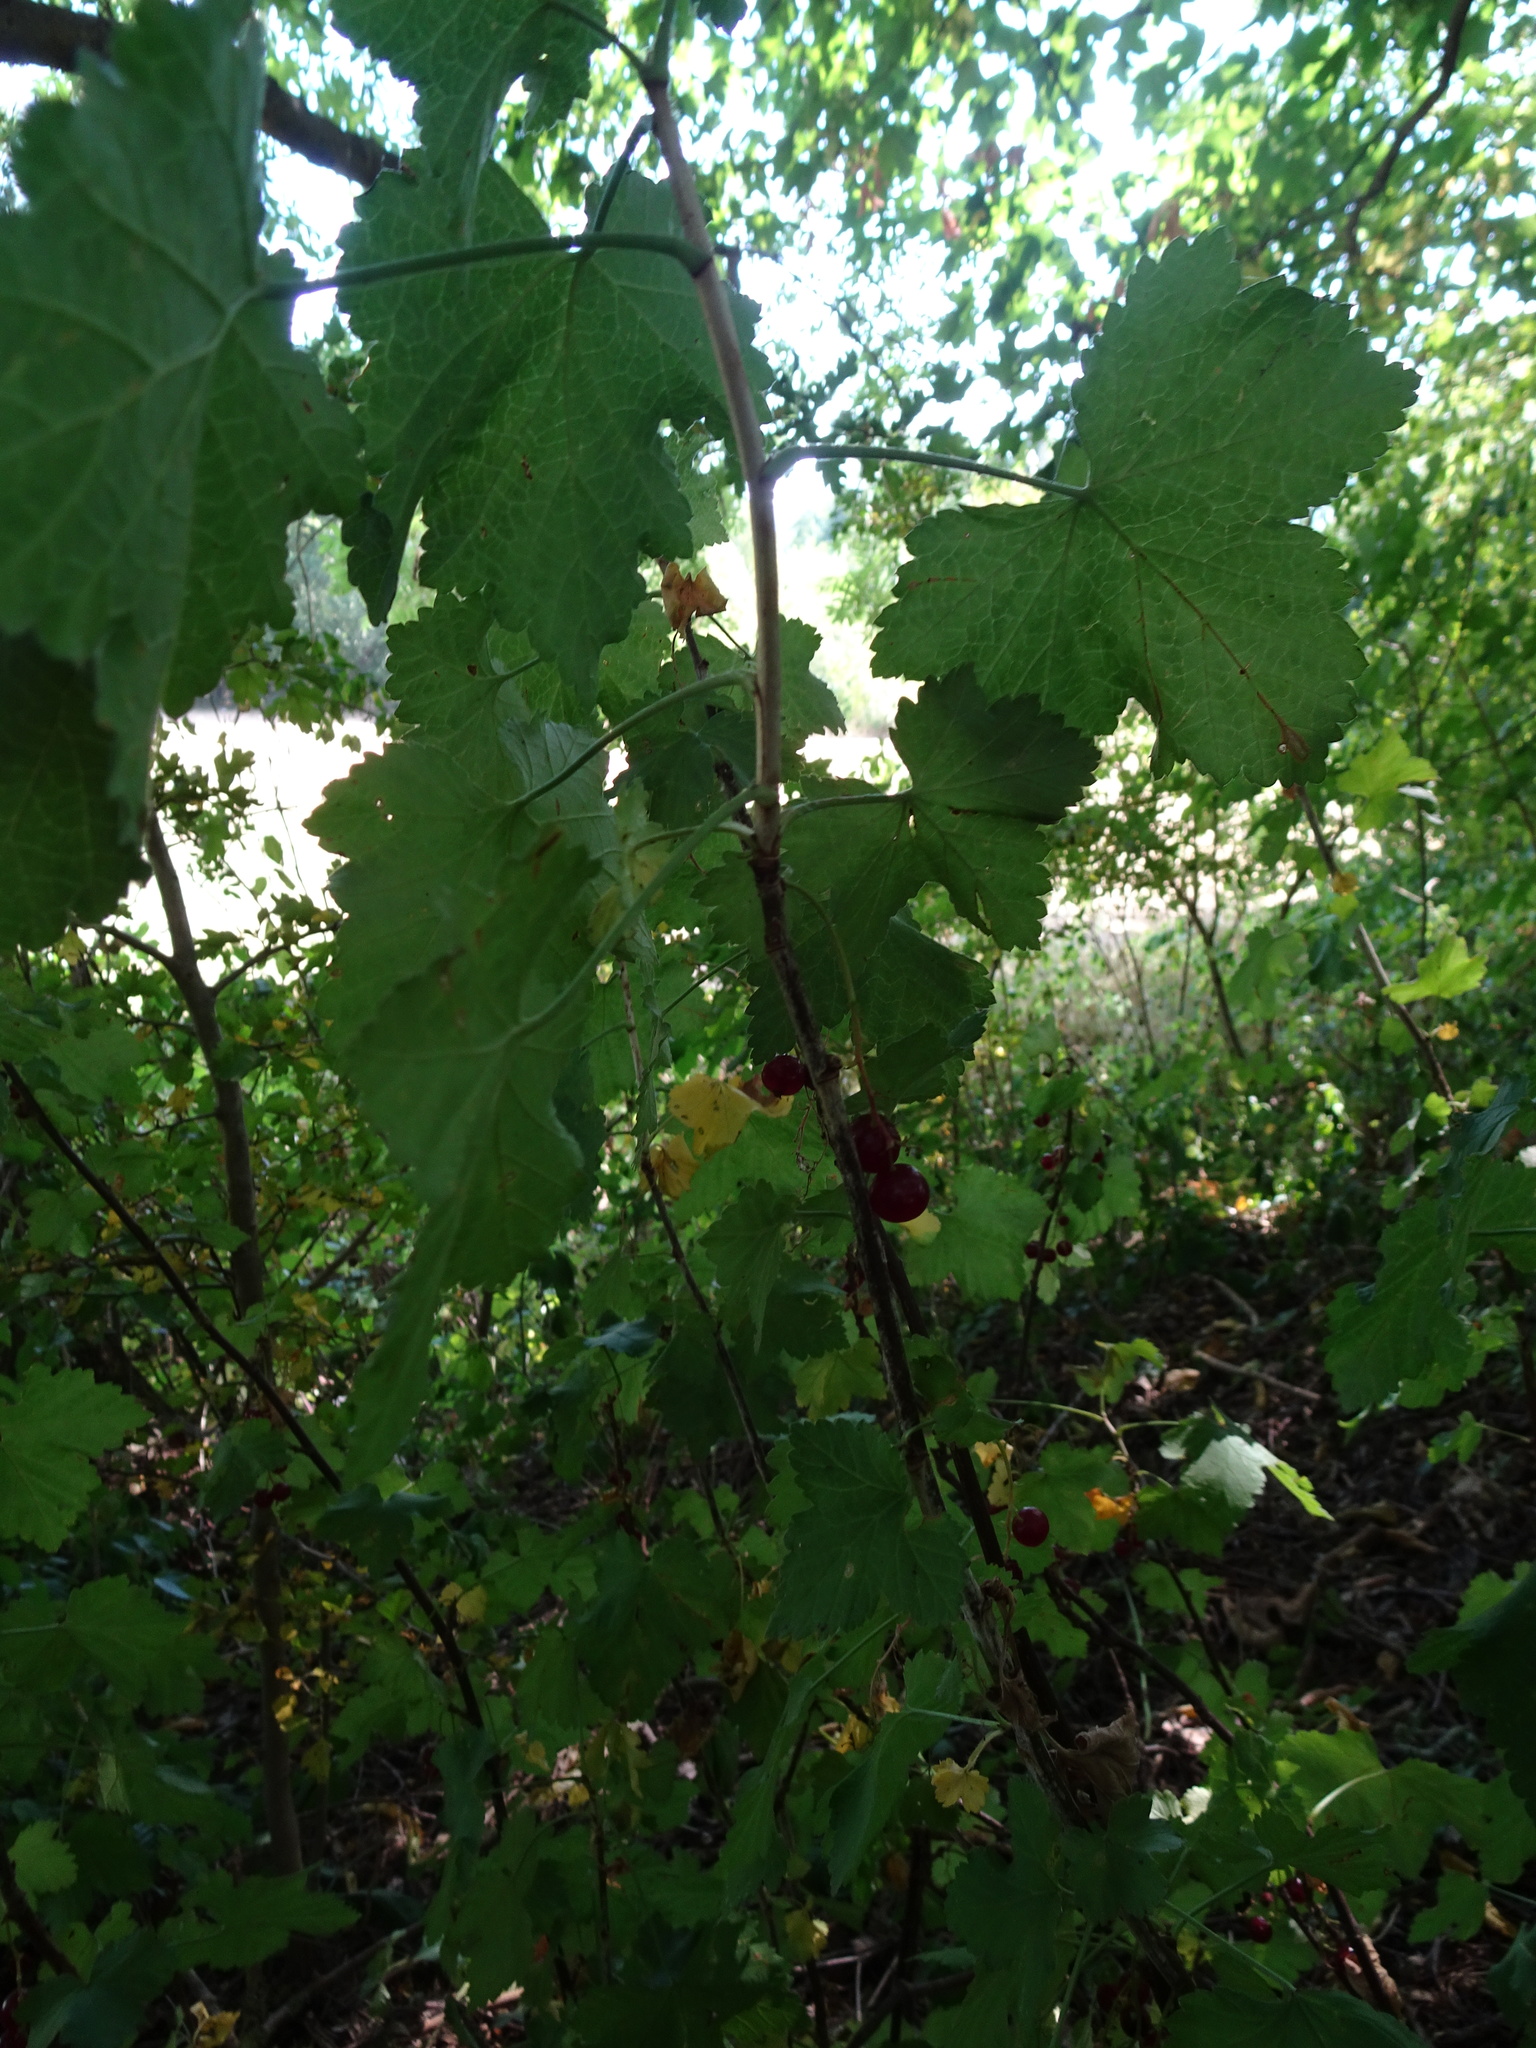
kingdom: Plantae
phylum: Tracheophyta
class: Magnoliopsida
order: Saxifragales
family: Grossulariaceae
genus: Ribes
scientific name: Ribes rubrum
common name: Red currant
